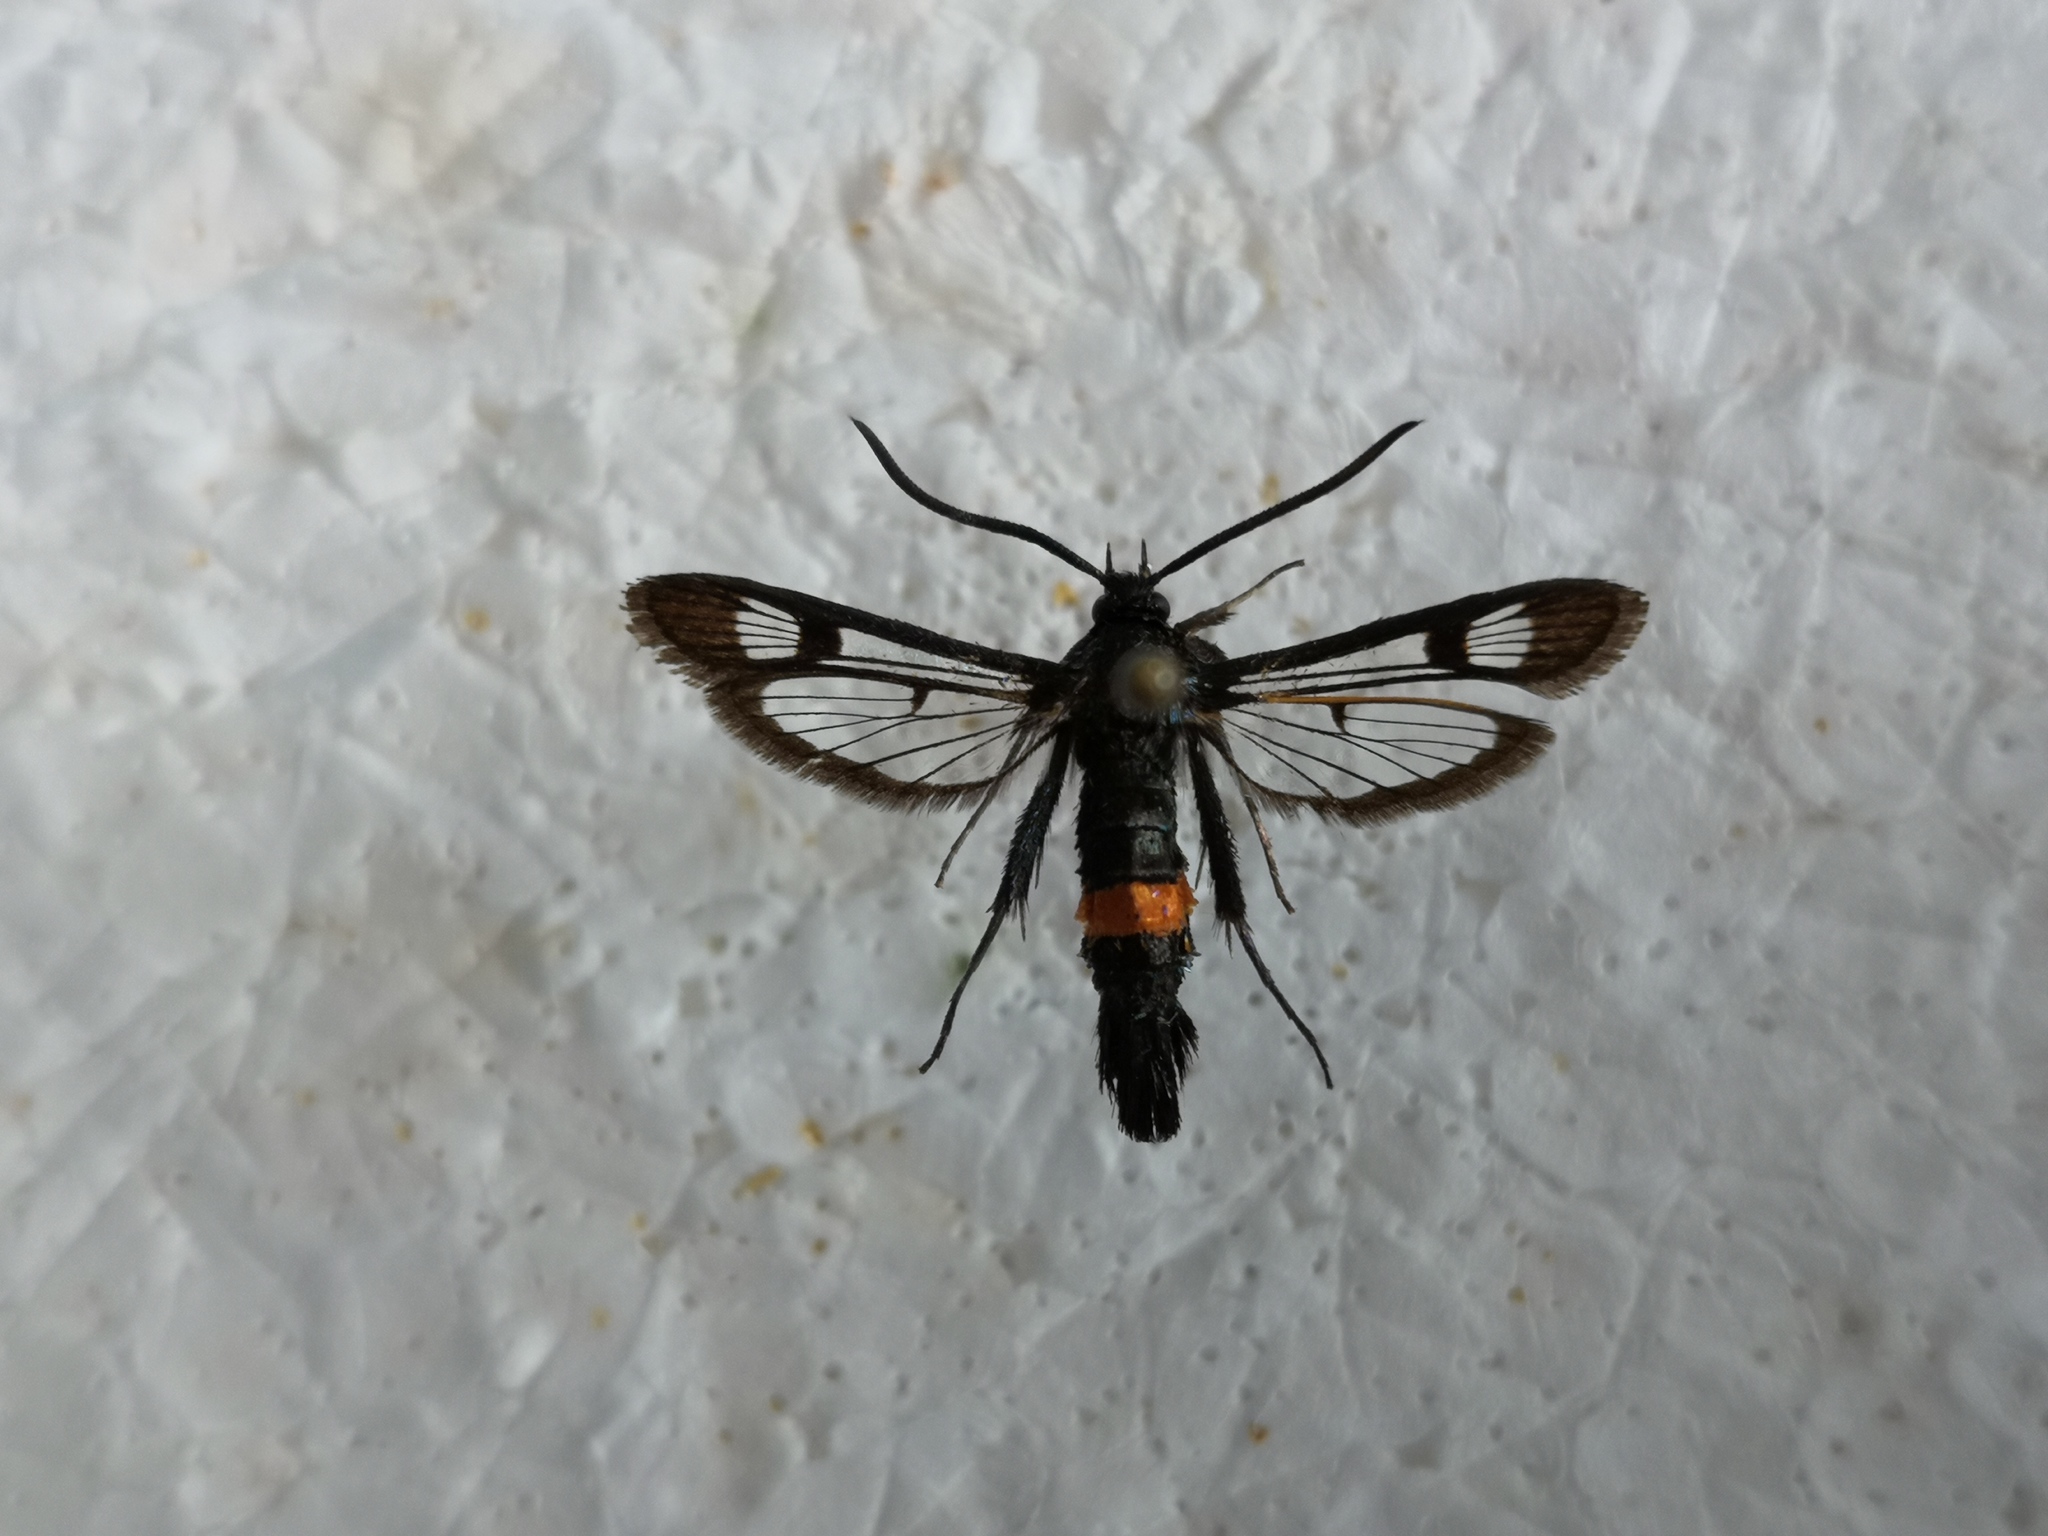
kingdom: Animalia
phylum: Arthropoda
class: Insecta
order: Lepidoptera
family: Sesiidae
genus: Synanthedon
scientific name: Synanthedon myopaeformis
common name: Red-belted clearwing
